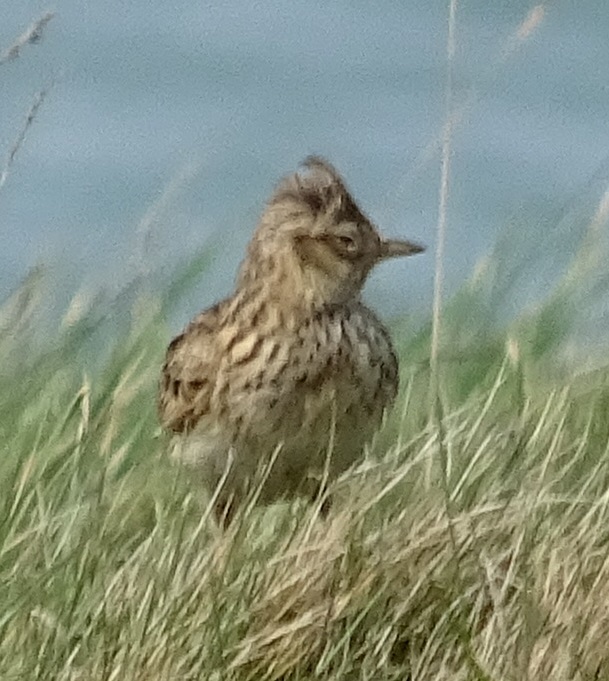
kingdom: Animalia
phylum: Chordata
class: Aves
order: Passeriformes
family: Alaudidae
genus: Alauda
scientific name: Alauda arvensis
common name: Eurasian skylark
